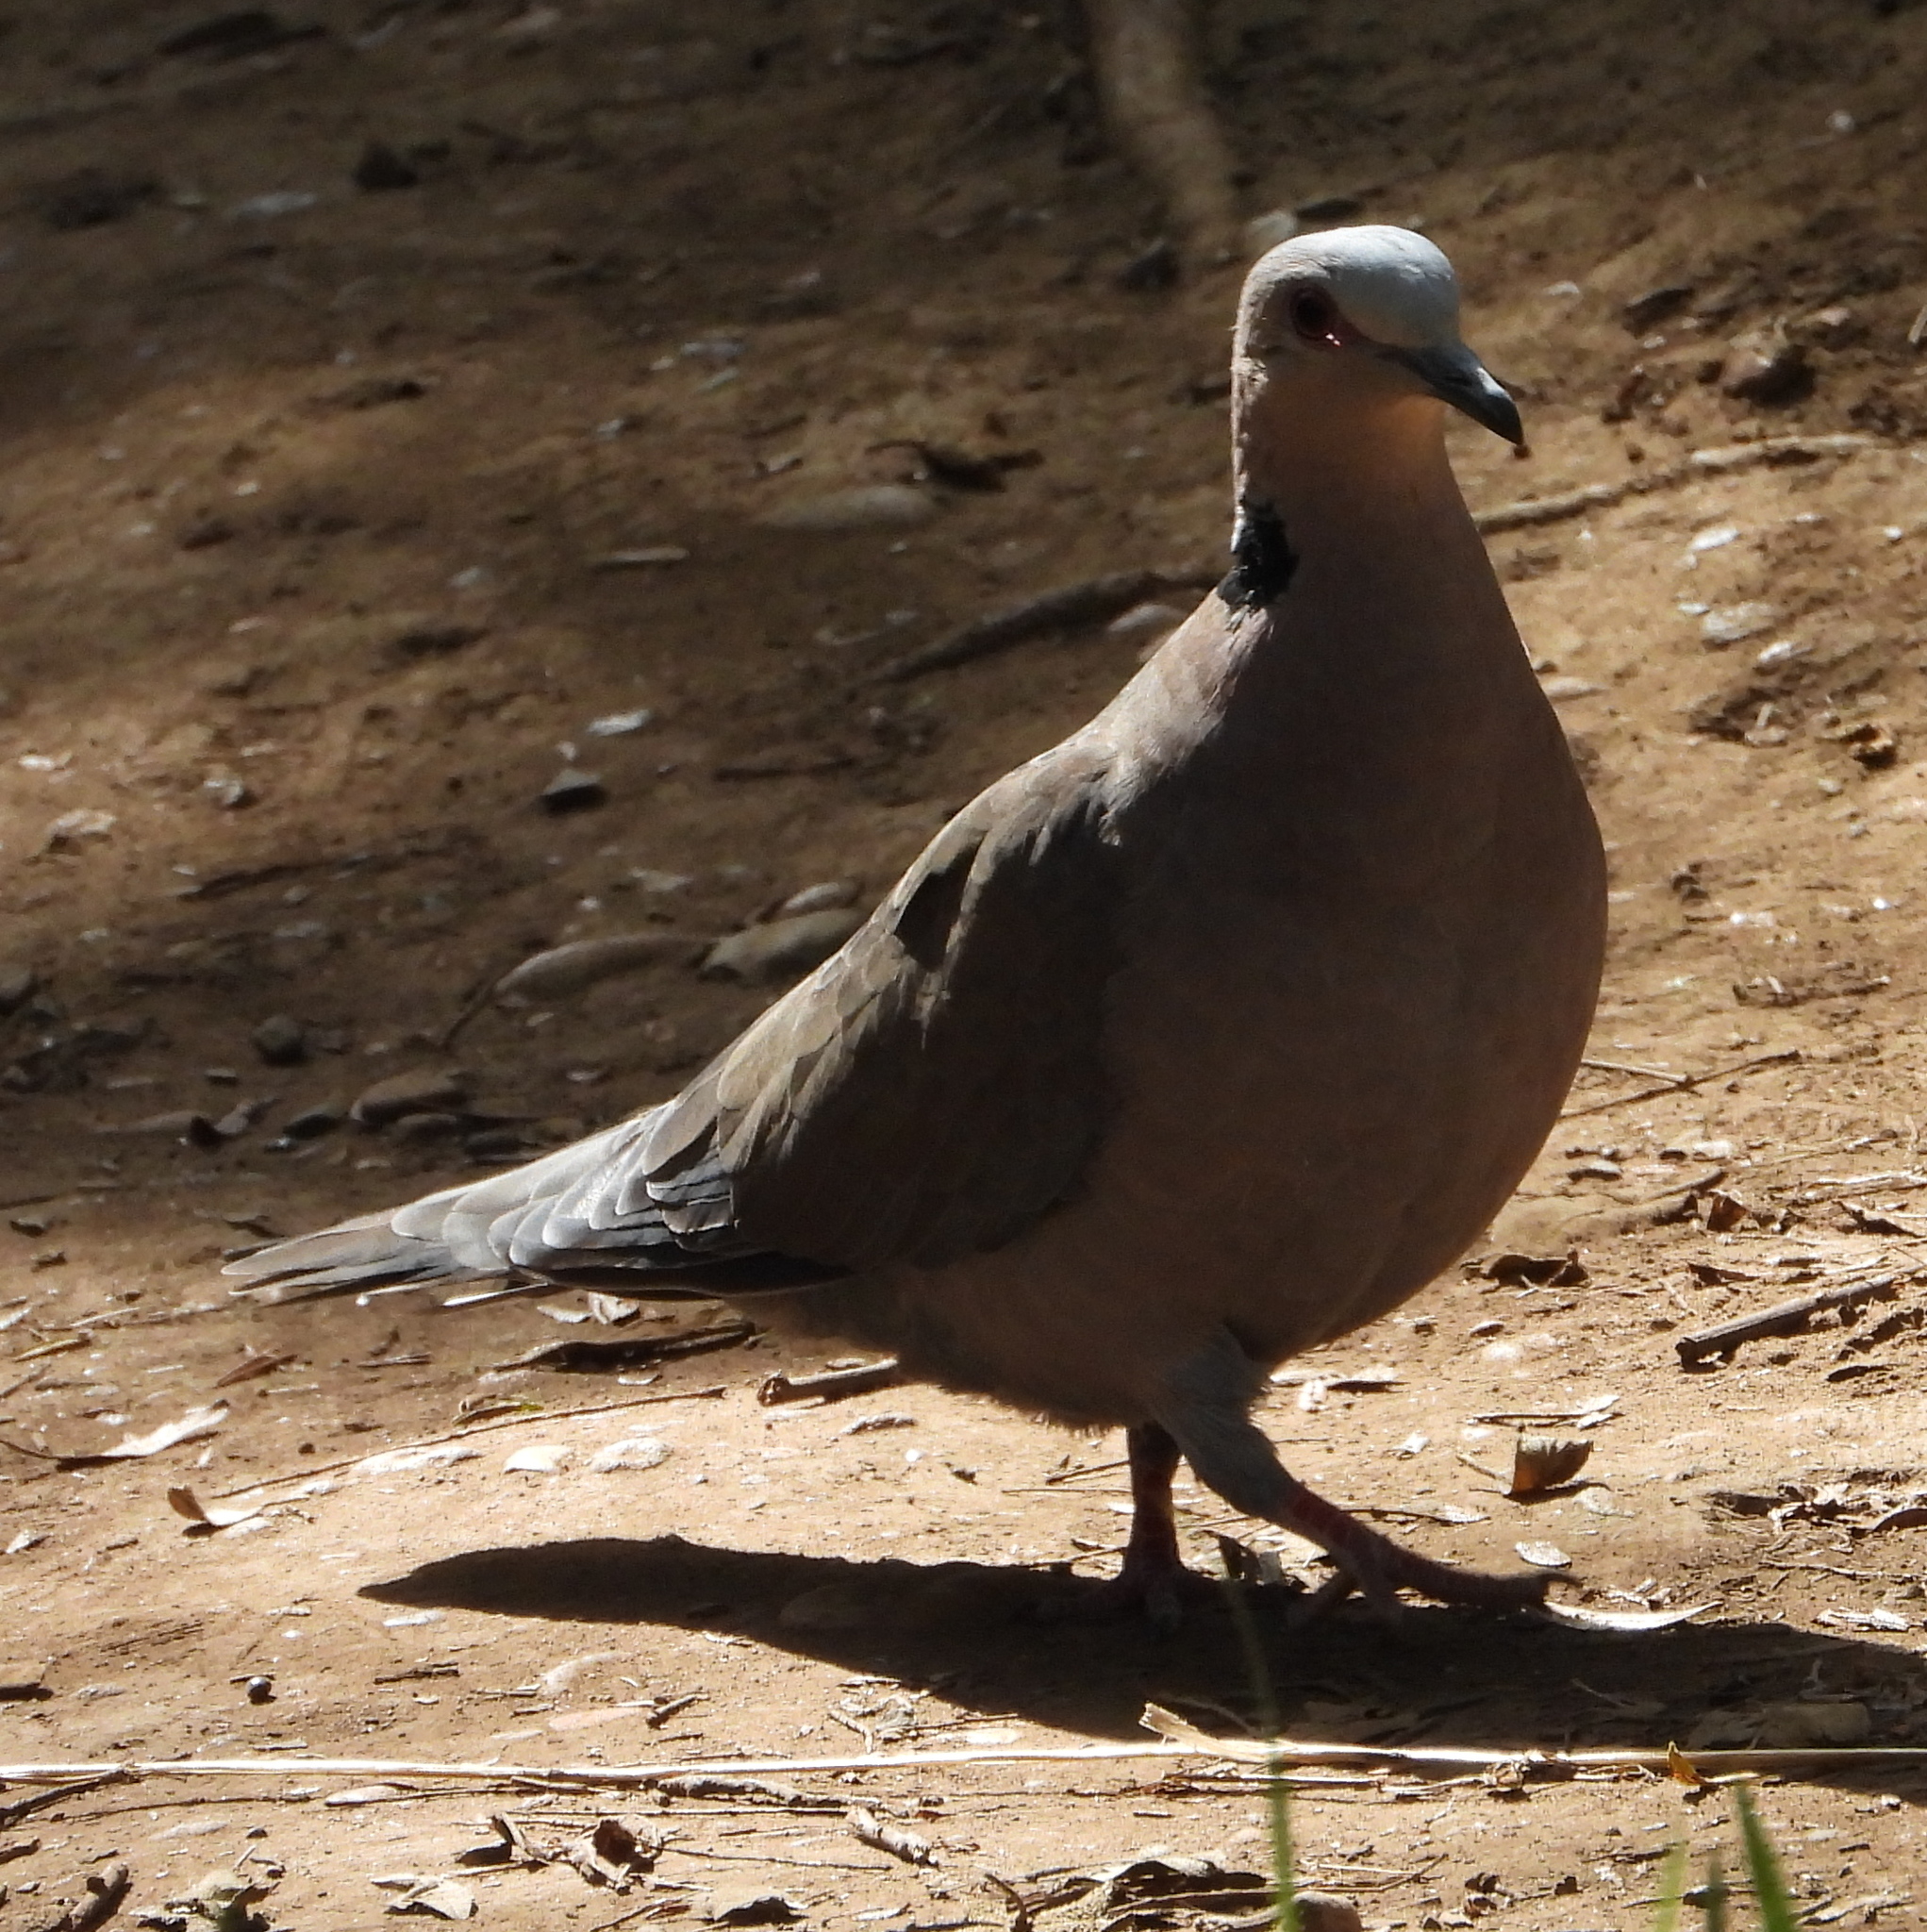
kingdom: Animalia
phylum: Chordata
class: Aves
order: Columbiformes
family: Columbidae
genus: Streptopelia
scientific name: Streptopelia semitorquata
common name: Red-eyed dove
